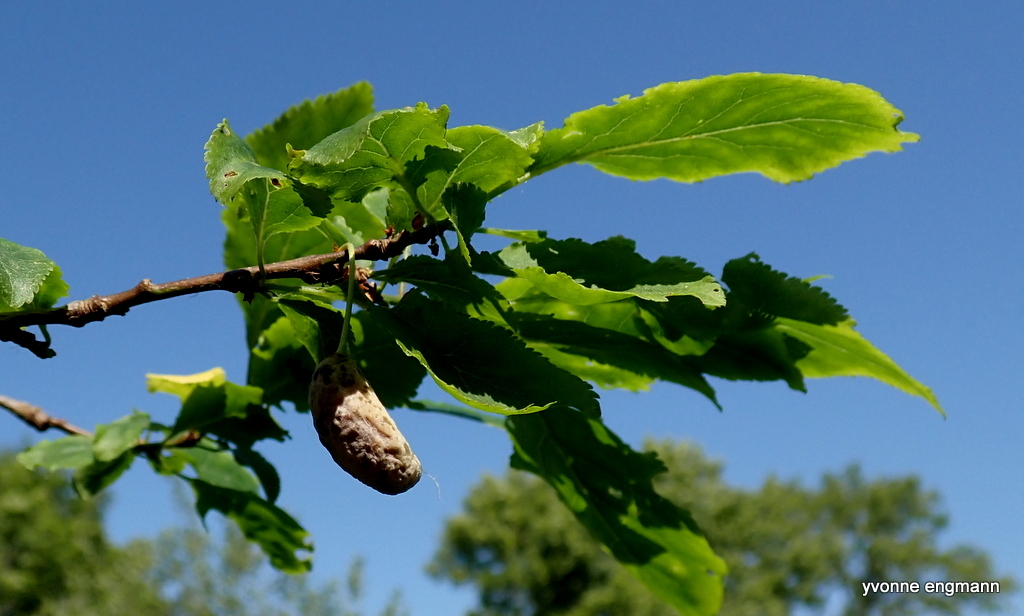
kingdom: Fungi
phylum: Ascomycota
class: Taphrinomycetes
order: Taphrinales
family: Taphrinaceae
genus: Taphrina
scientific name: Taphrina pruni
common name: Pocket plum
